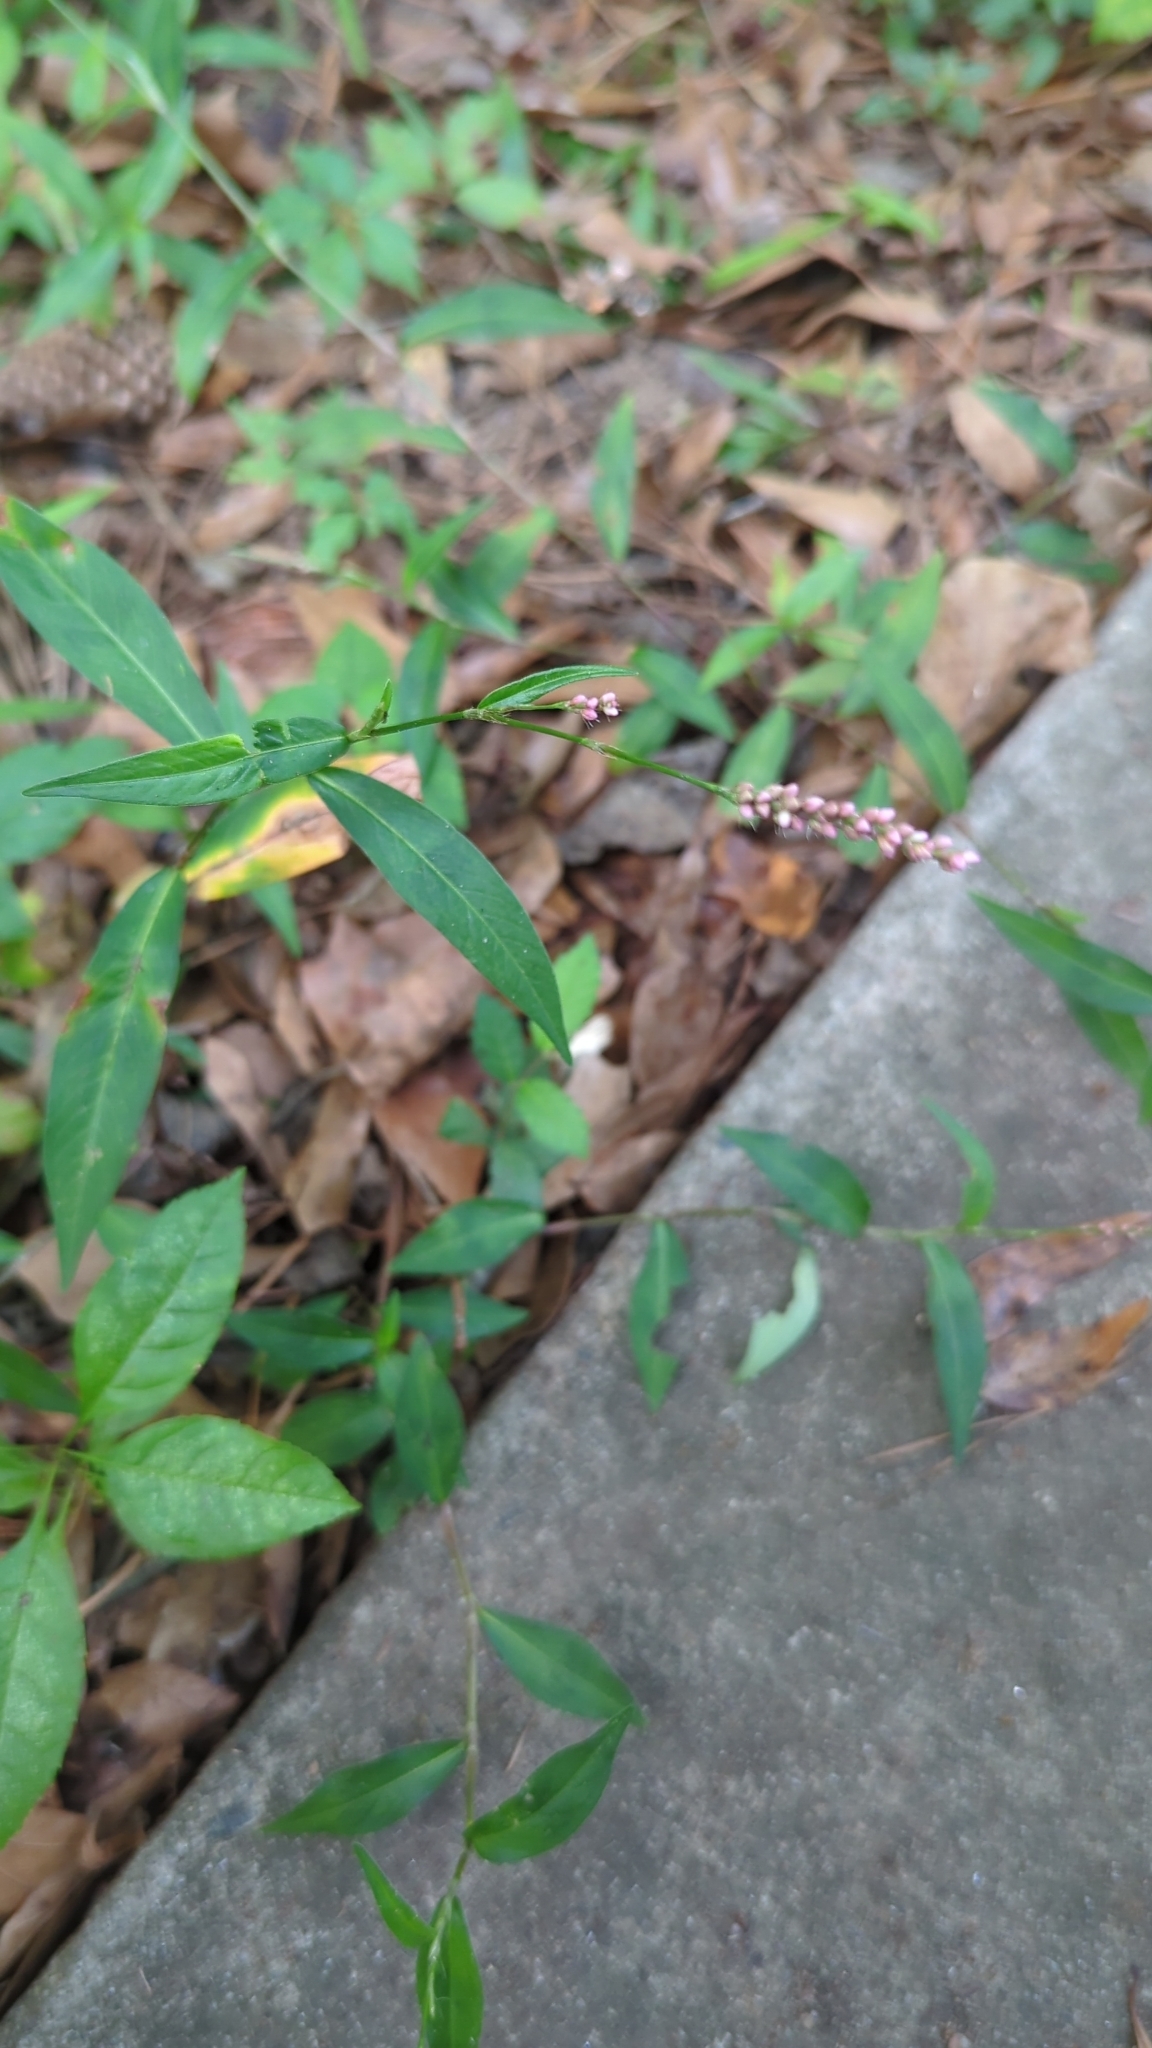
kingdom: Plantae
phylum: Tracheophyta
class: Magnoliopsida
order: Caryophyllales
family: Polygonaceae
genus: Persicaria
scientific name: Persicaria longiseta
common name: Bristly lady's-thumb
